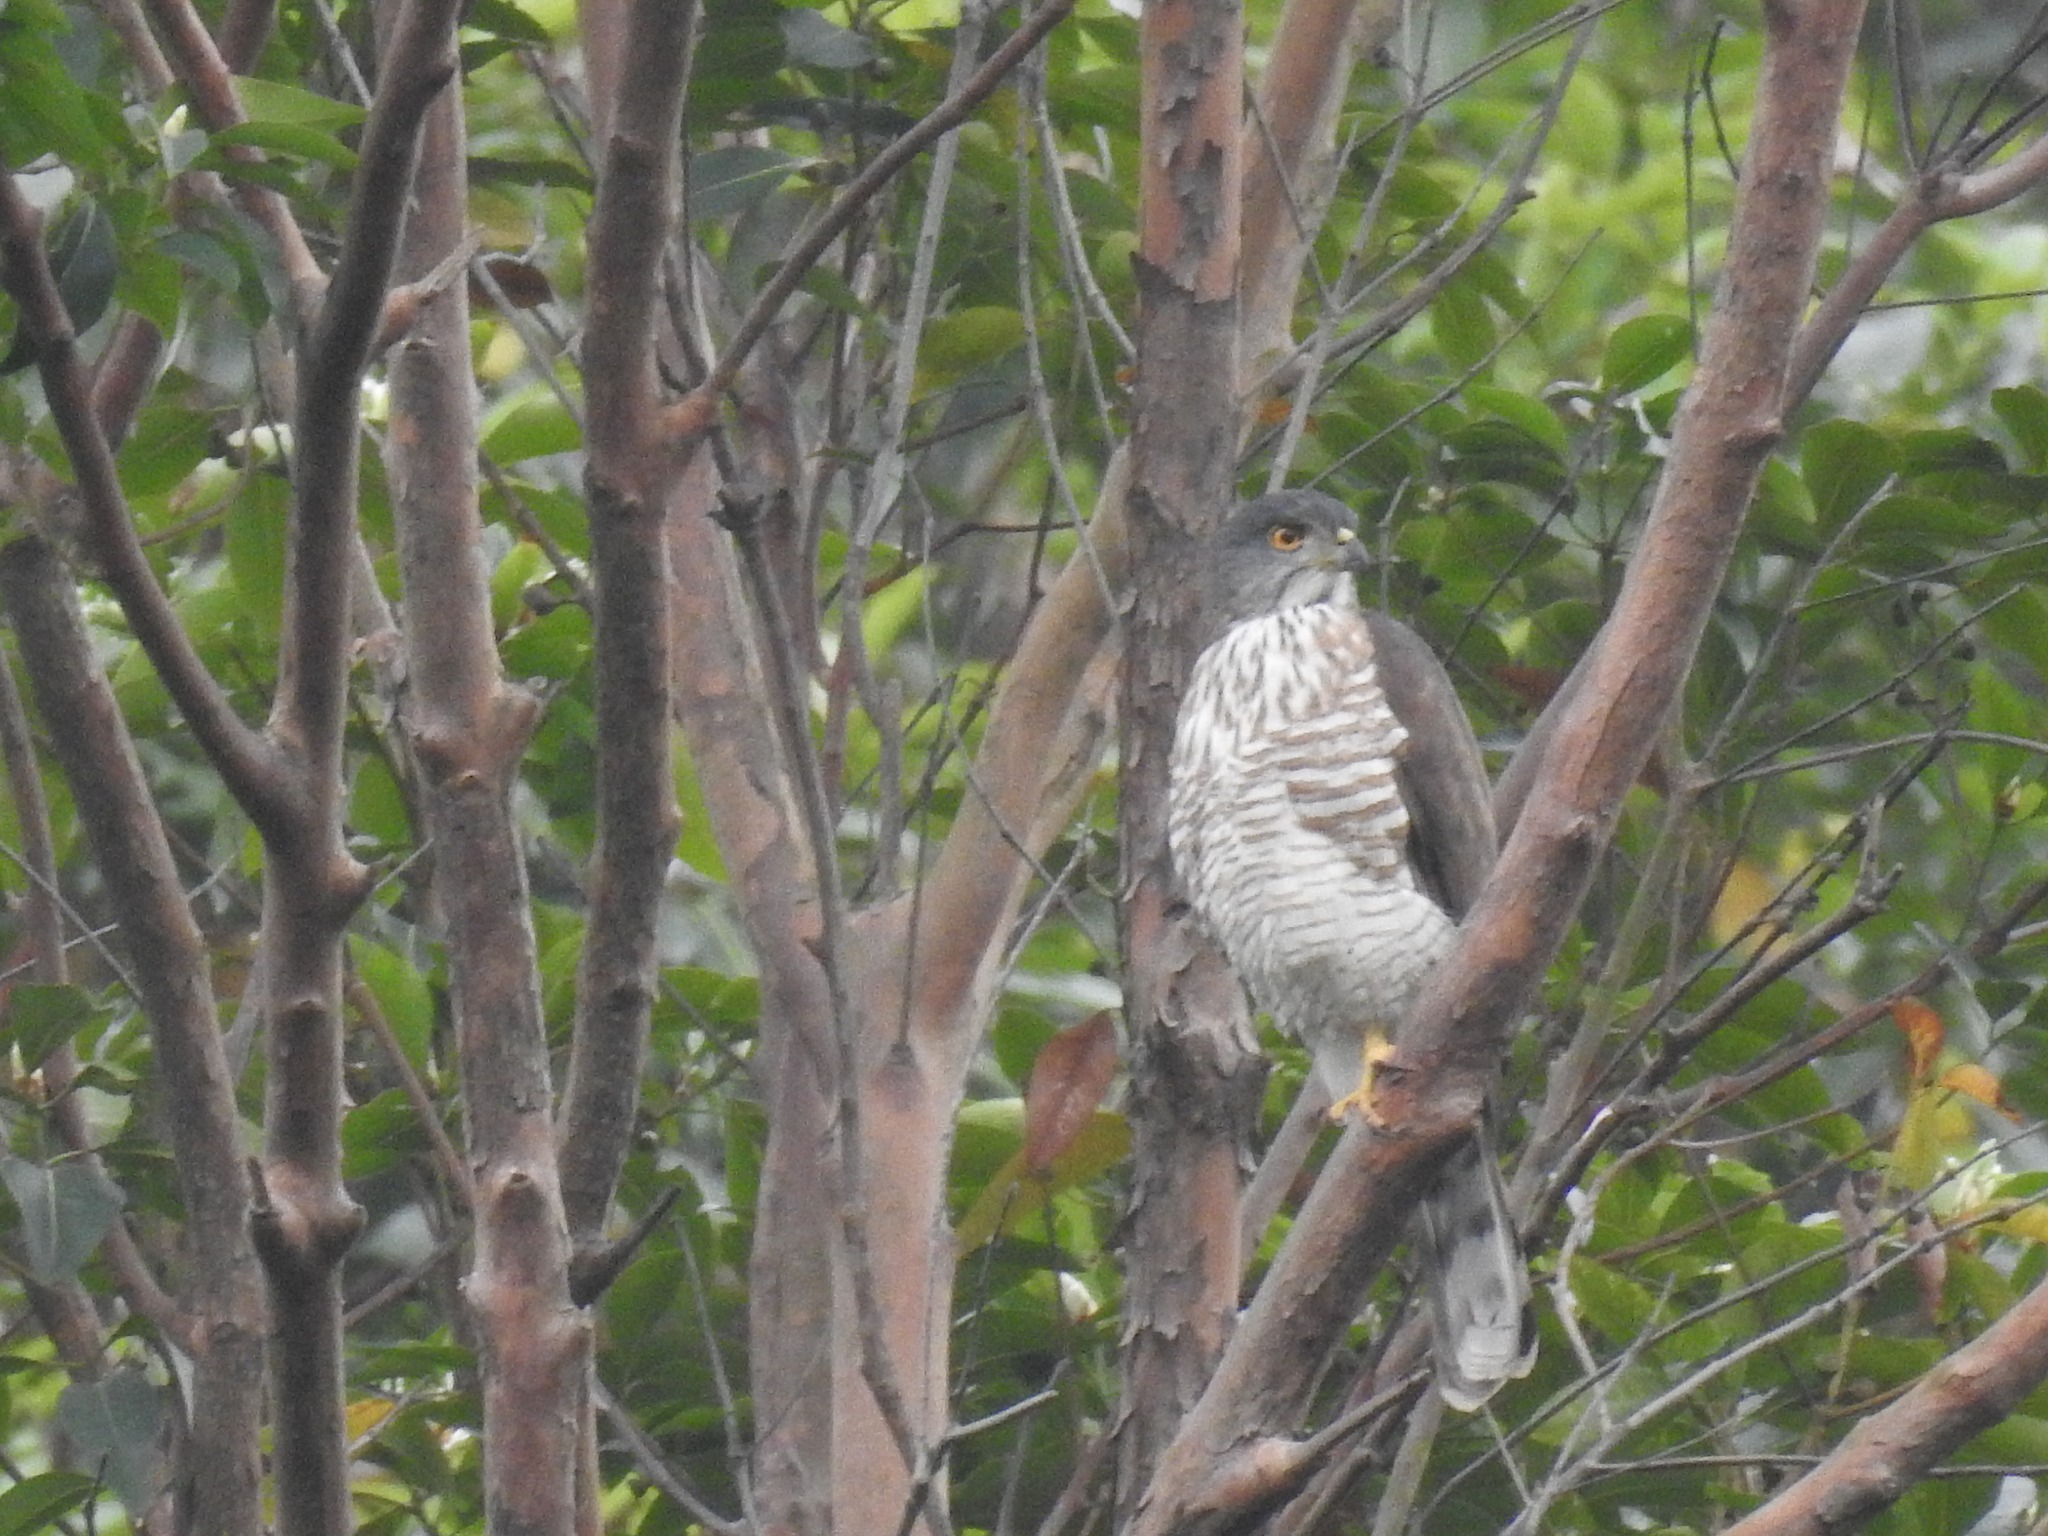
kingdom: Animalia
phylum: Chordata
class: Aves
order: Accipitriformes
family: Accipitridae
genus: Accipiter
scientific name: Accipiter trivirgatus
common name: Crested goshawk
